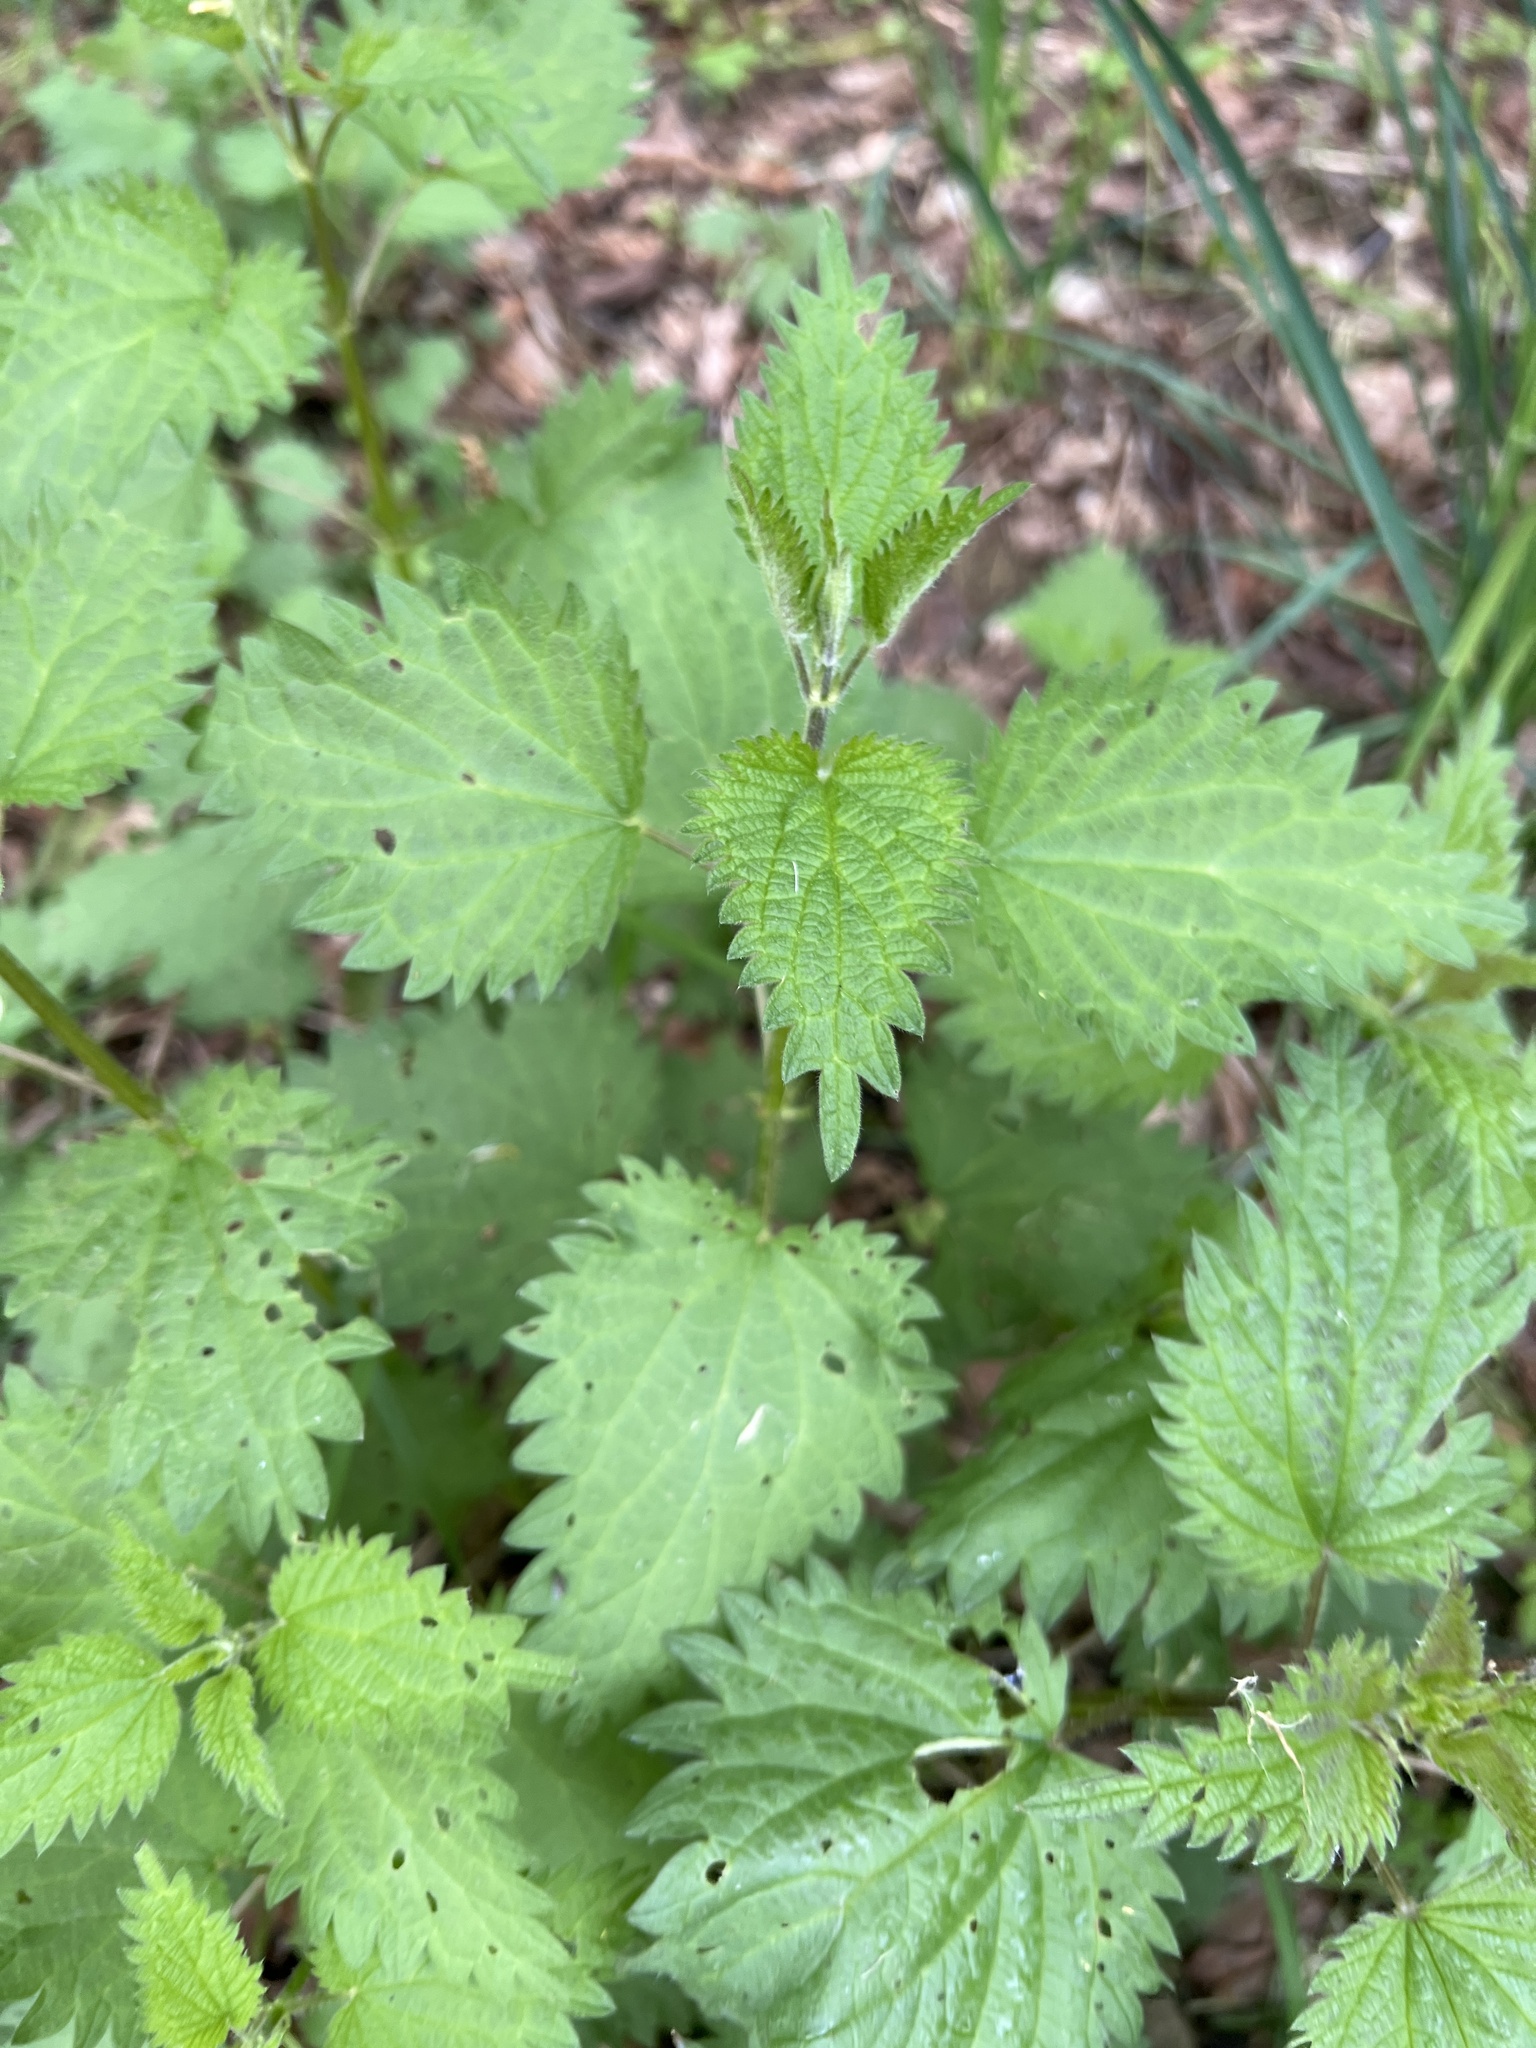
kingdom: Plantae
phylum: Tracheophyta
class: Magnoliopsida
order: Rosales
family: Urticaceae
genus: Urtica
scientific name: Urtica dioica
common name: Common nettle
